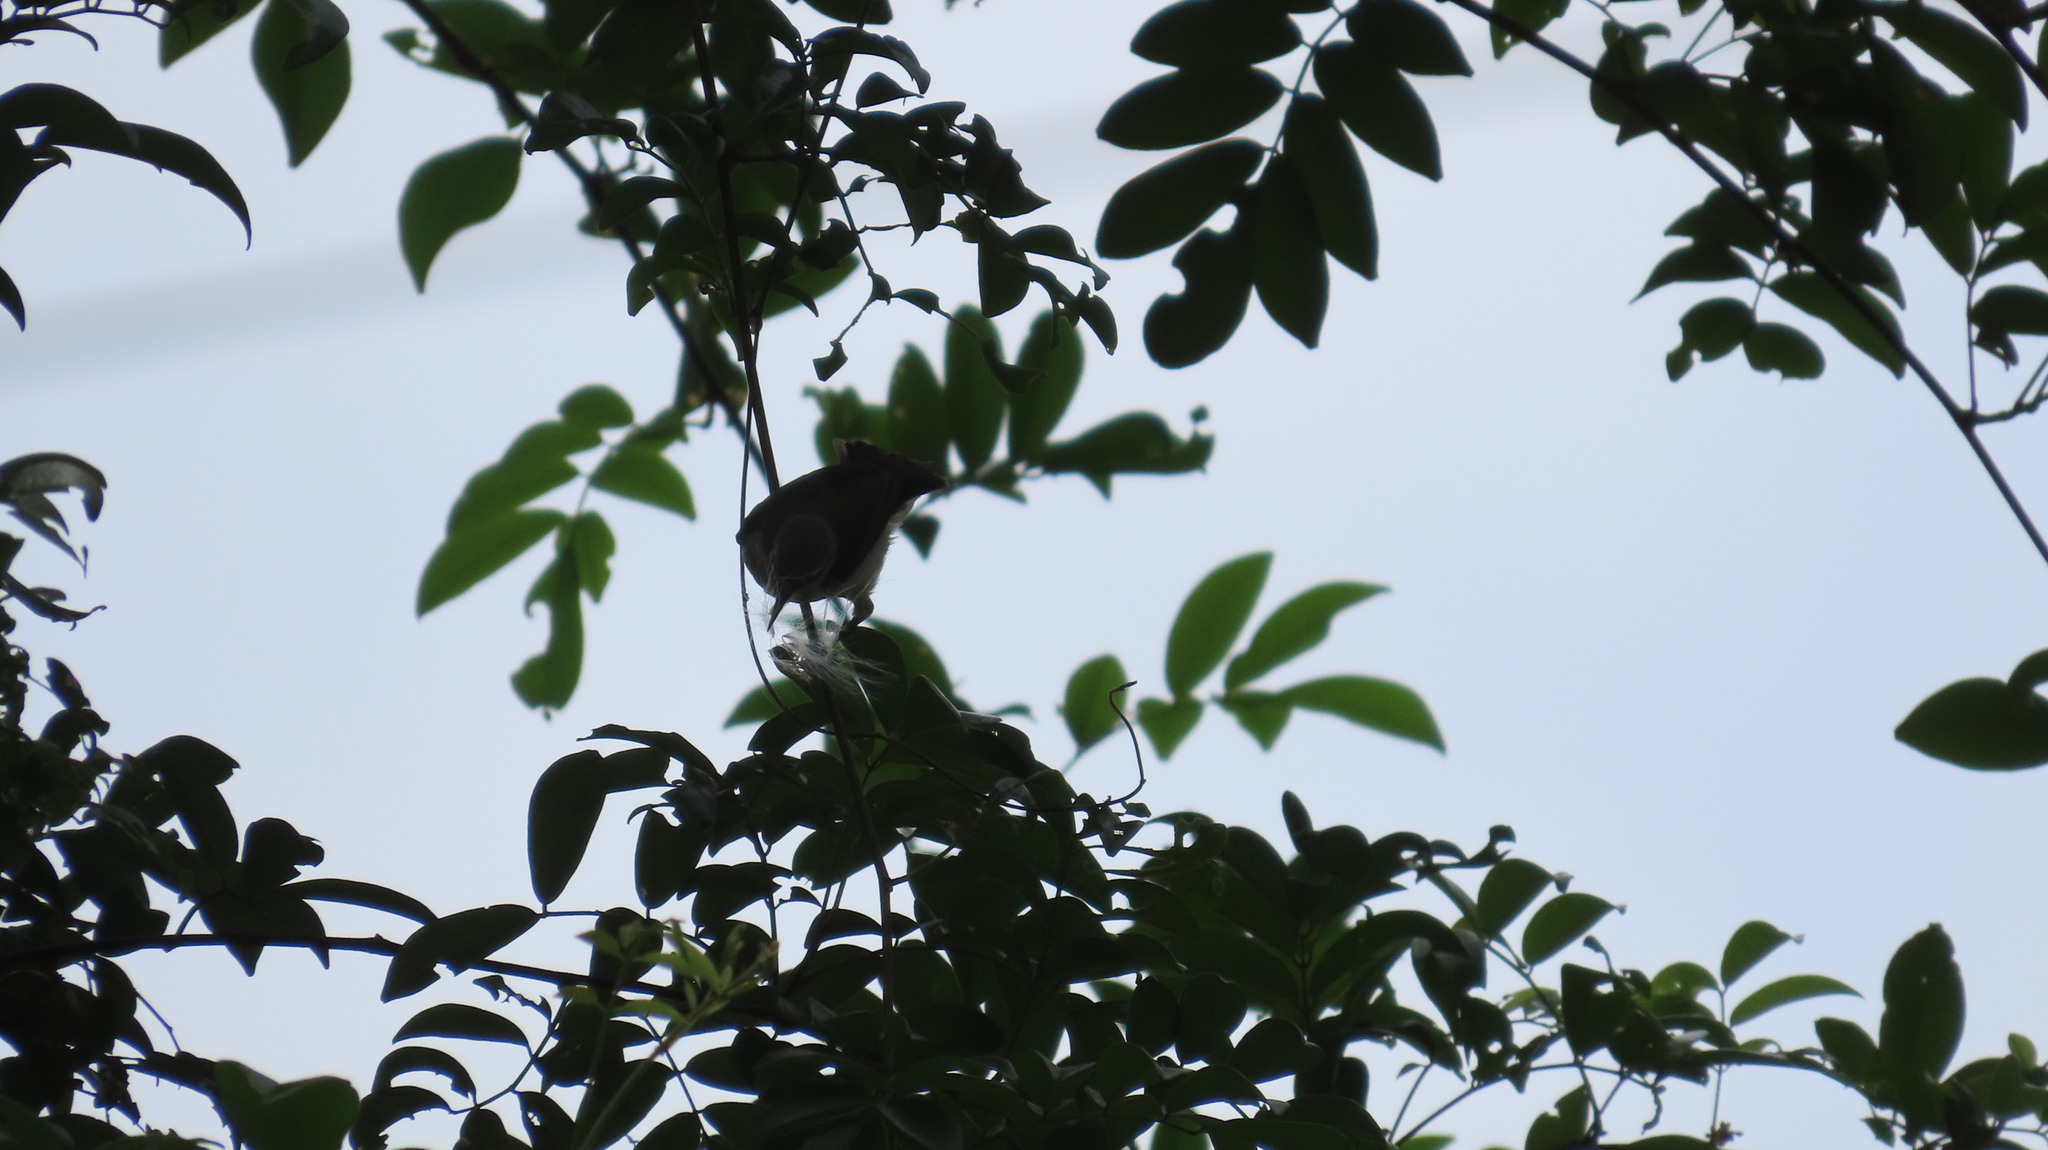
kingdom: Animalia
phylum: Chordata
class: Aves
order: Passeriformes
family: Nectariniidae
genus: Leptocoma
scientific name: Leptocoma zeylonica
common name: Purple-rumped sunbird
